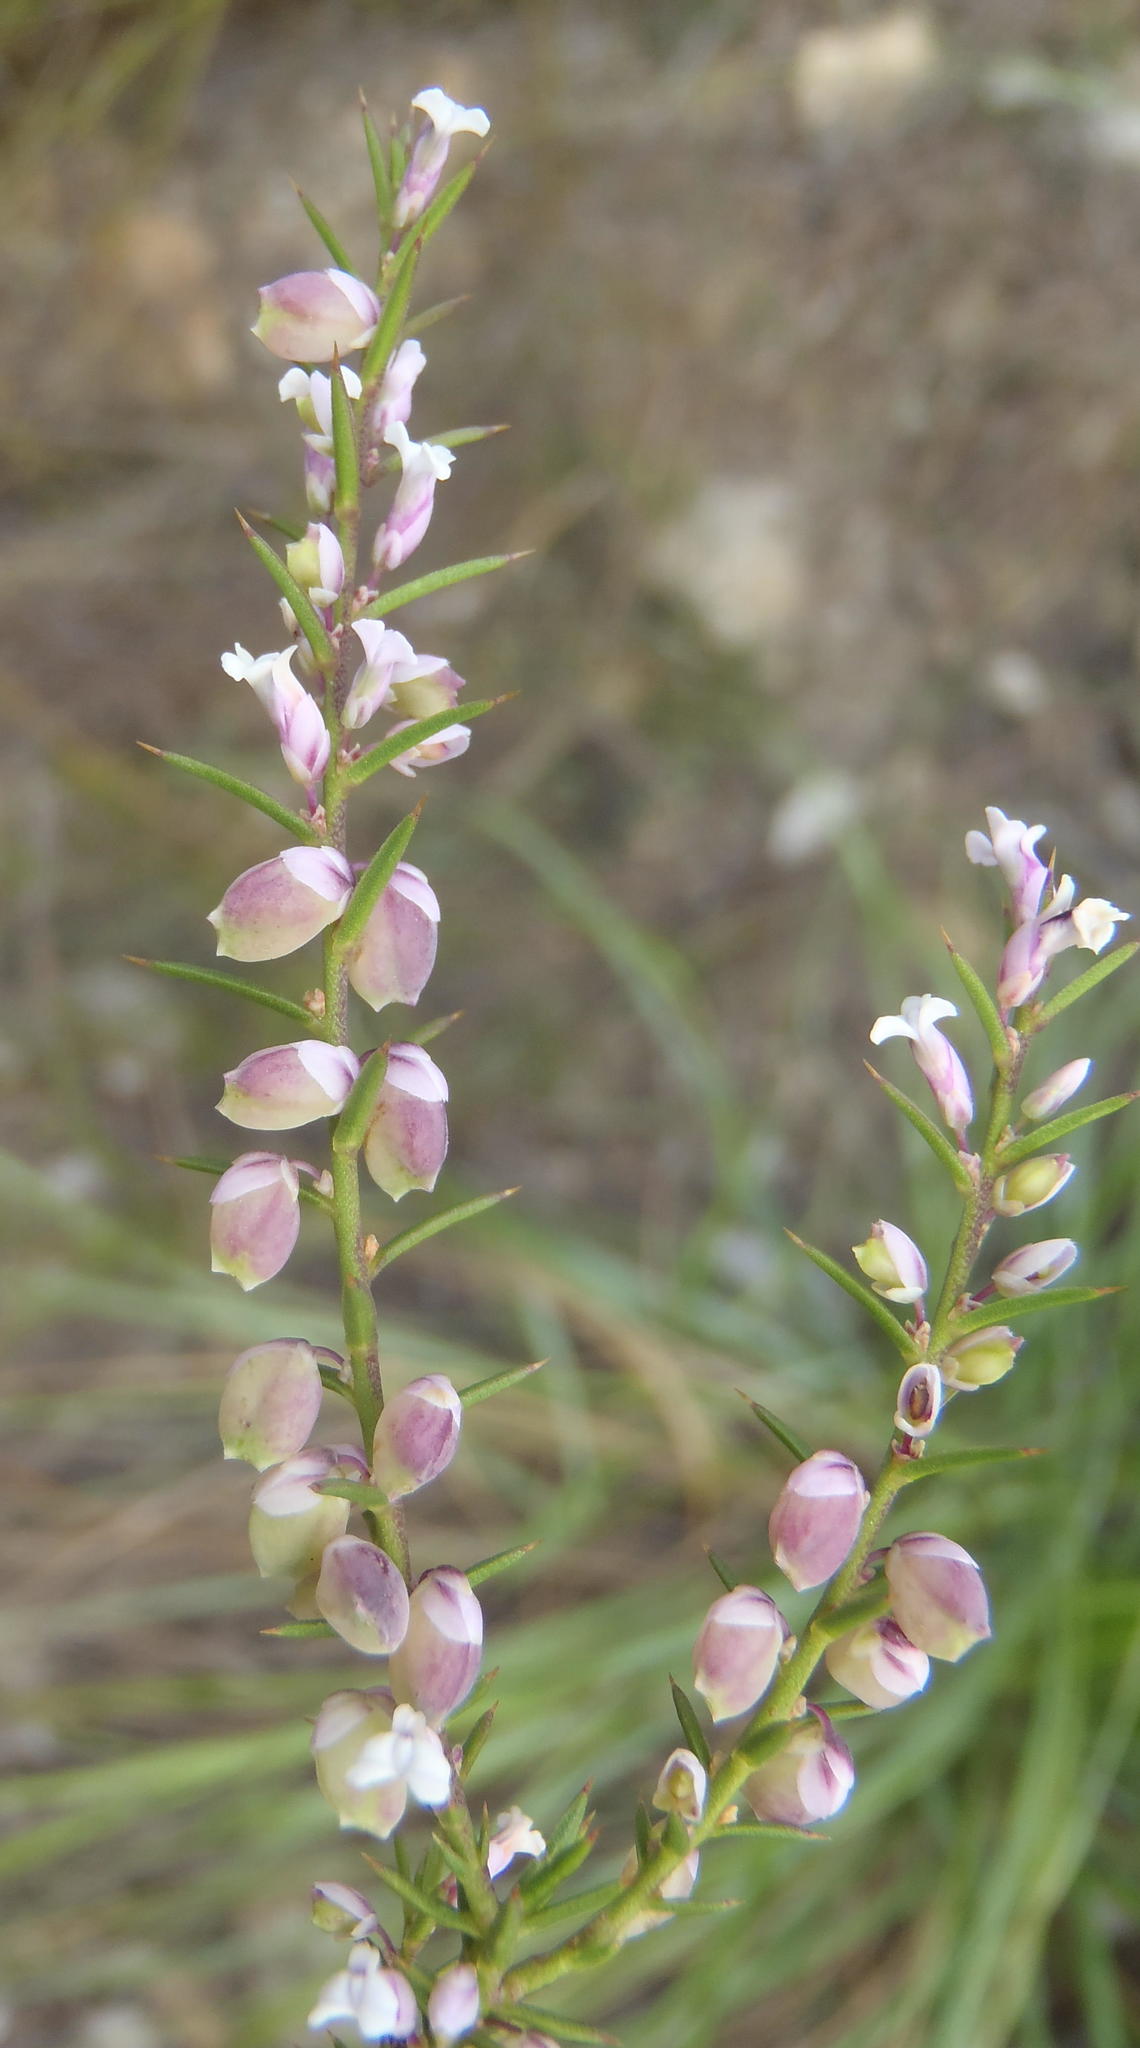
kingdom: Plantae
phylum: Tracheophyta
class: Magnoliopsida
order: Fabales
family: Polygalaceae
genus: Muraltia
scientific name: Muraltia juniperifolia
